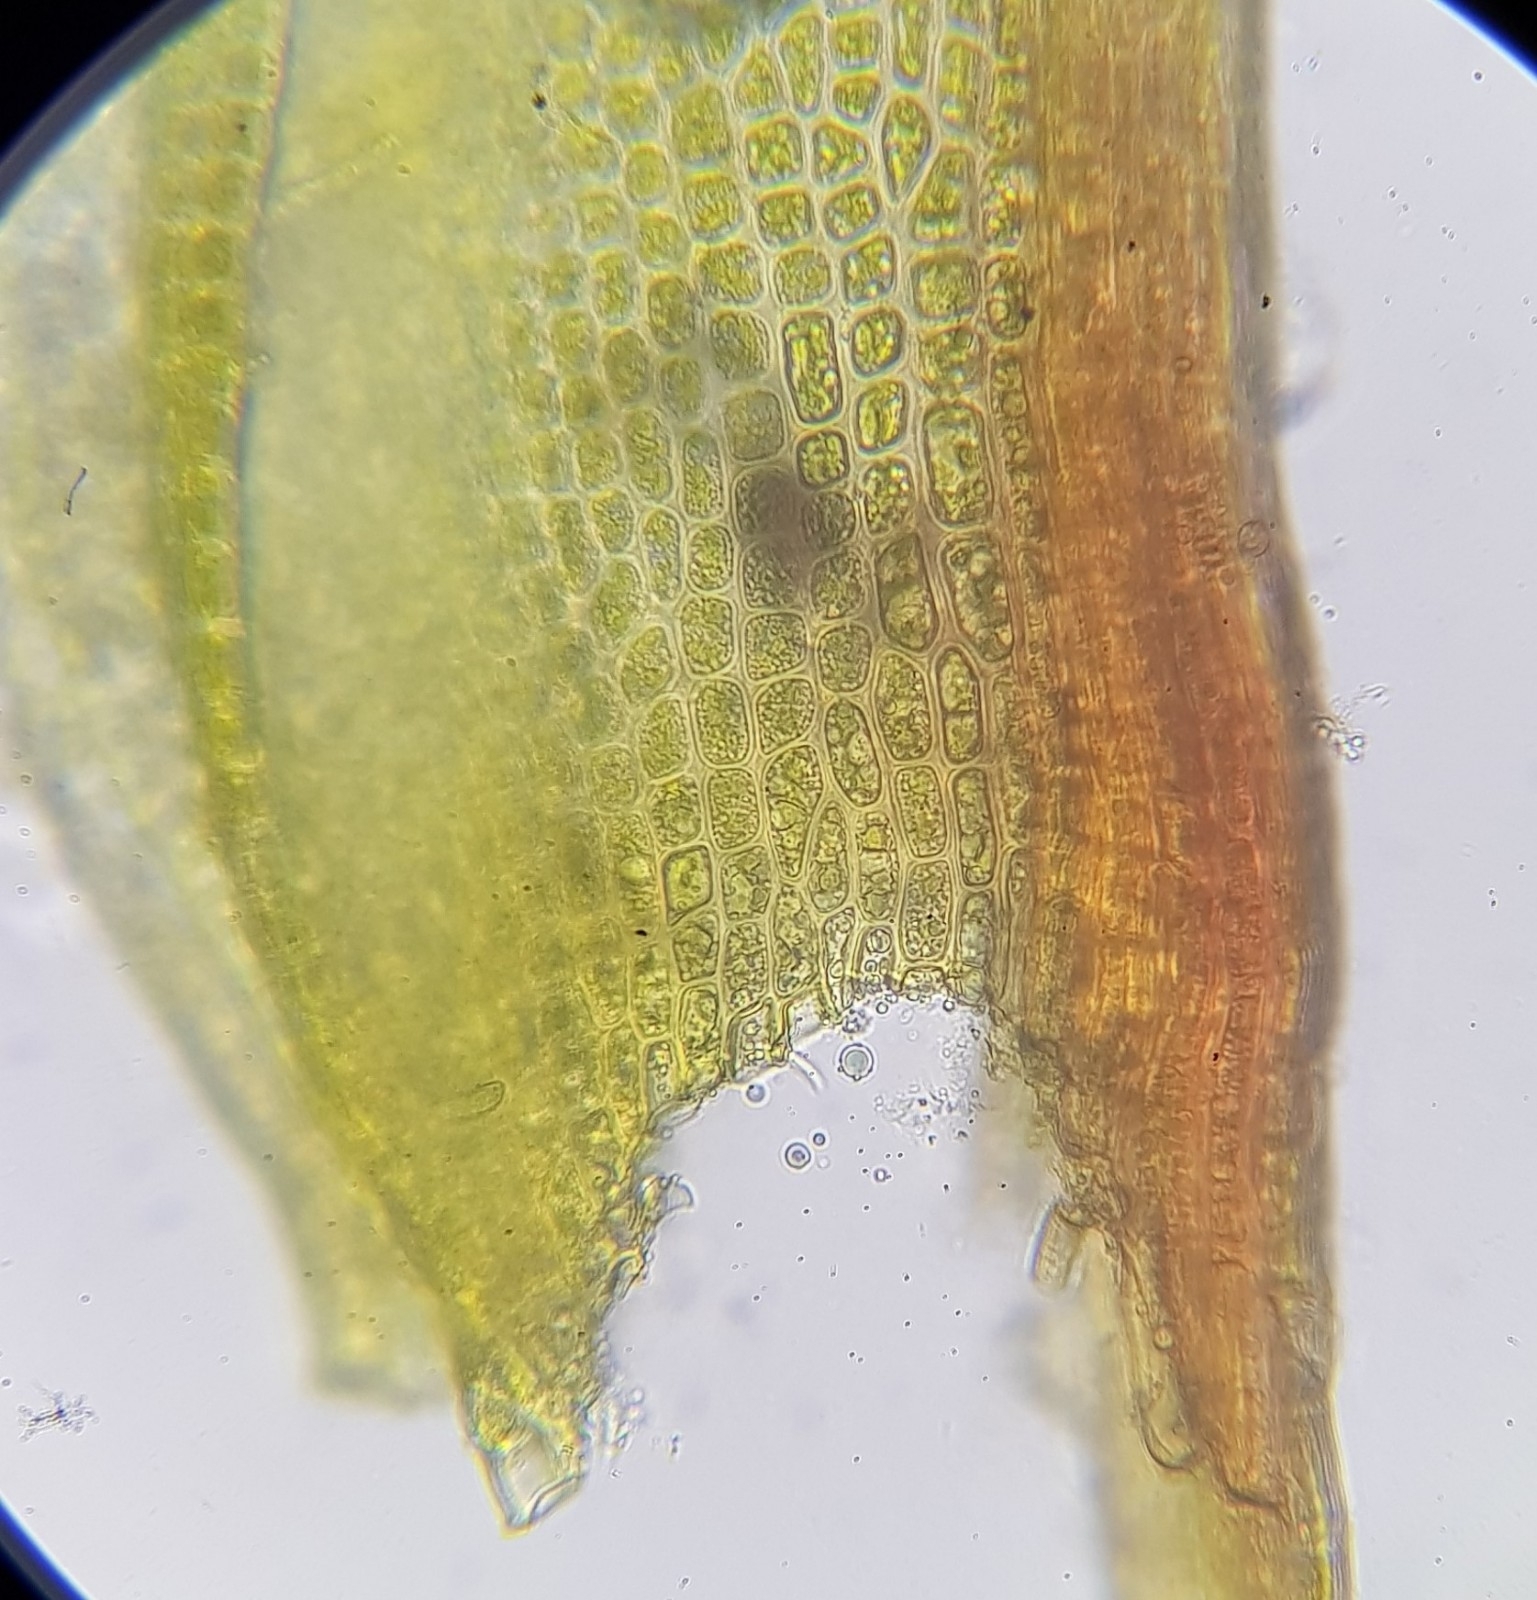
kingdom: Plantae
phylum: Bryophyta
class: Bryopsida
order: Pottiales
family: Pottiaceae
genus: Geheebia
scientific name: Geheebia fallax
